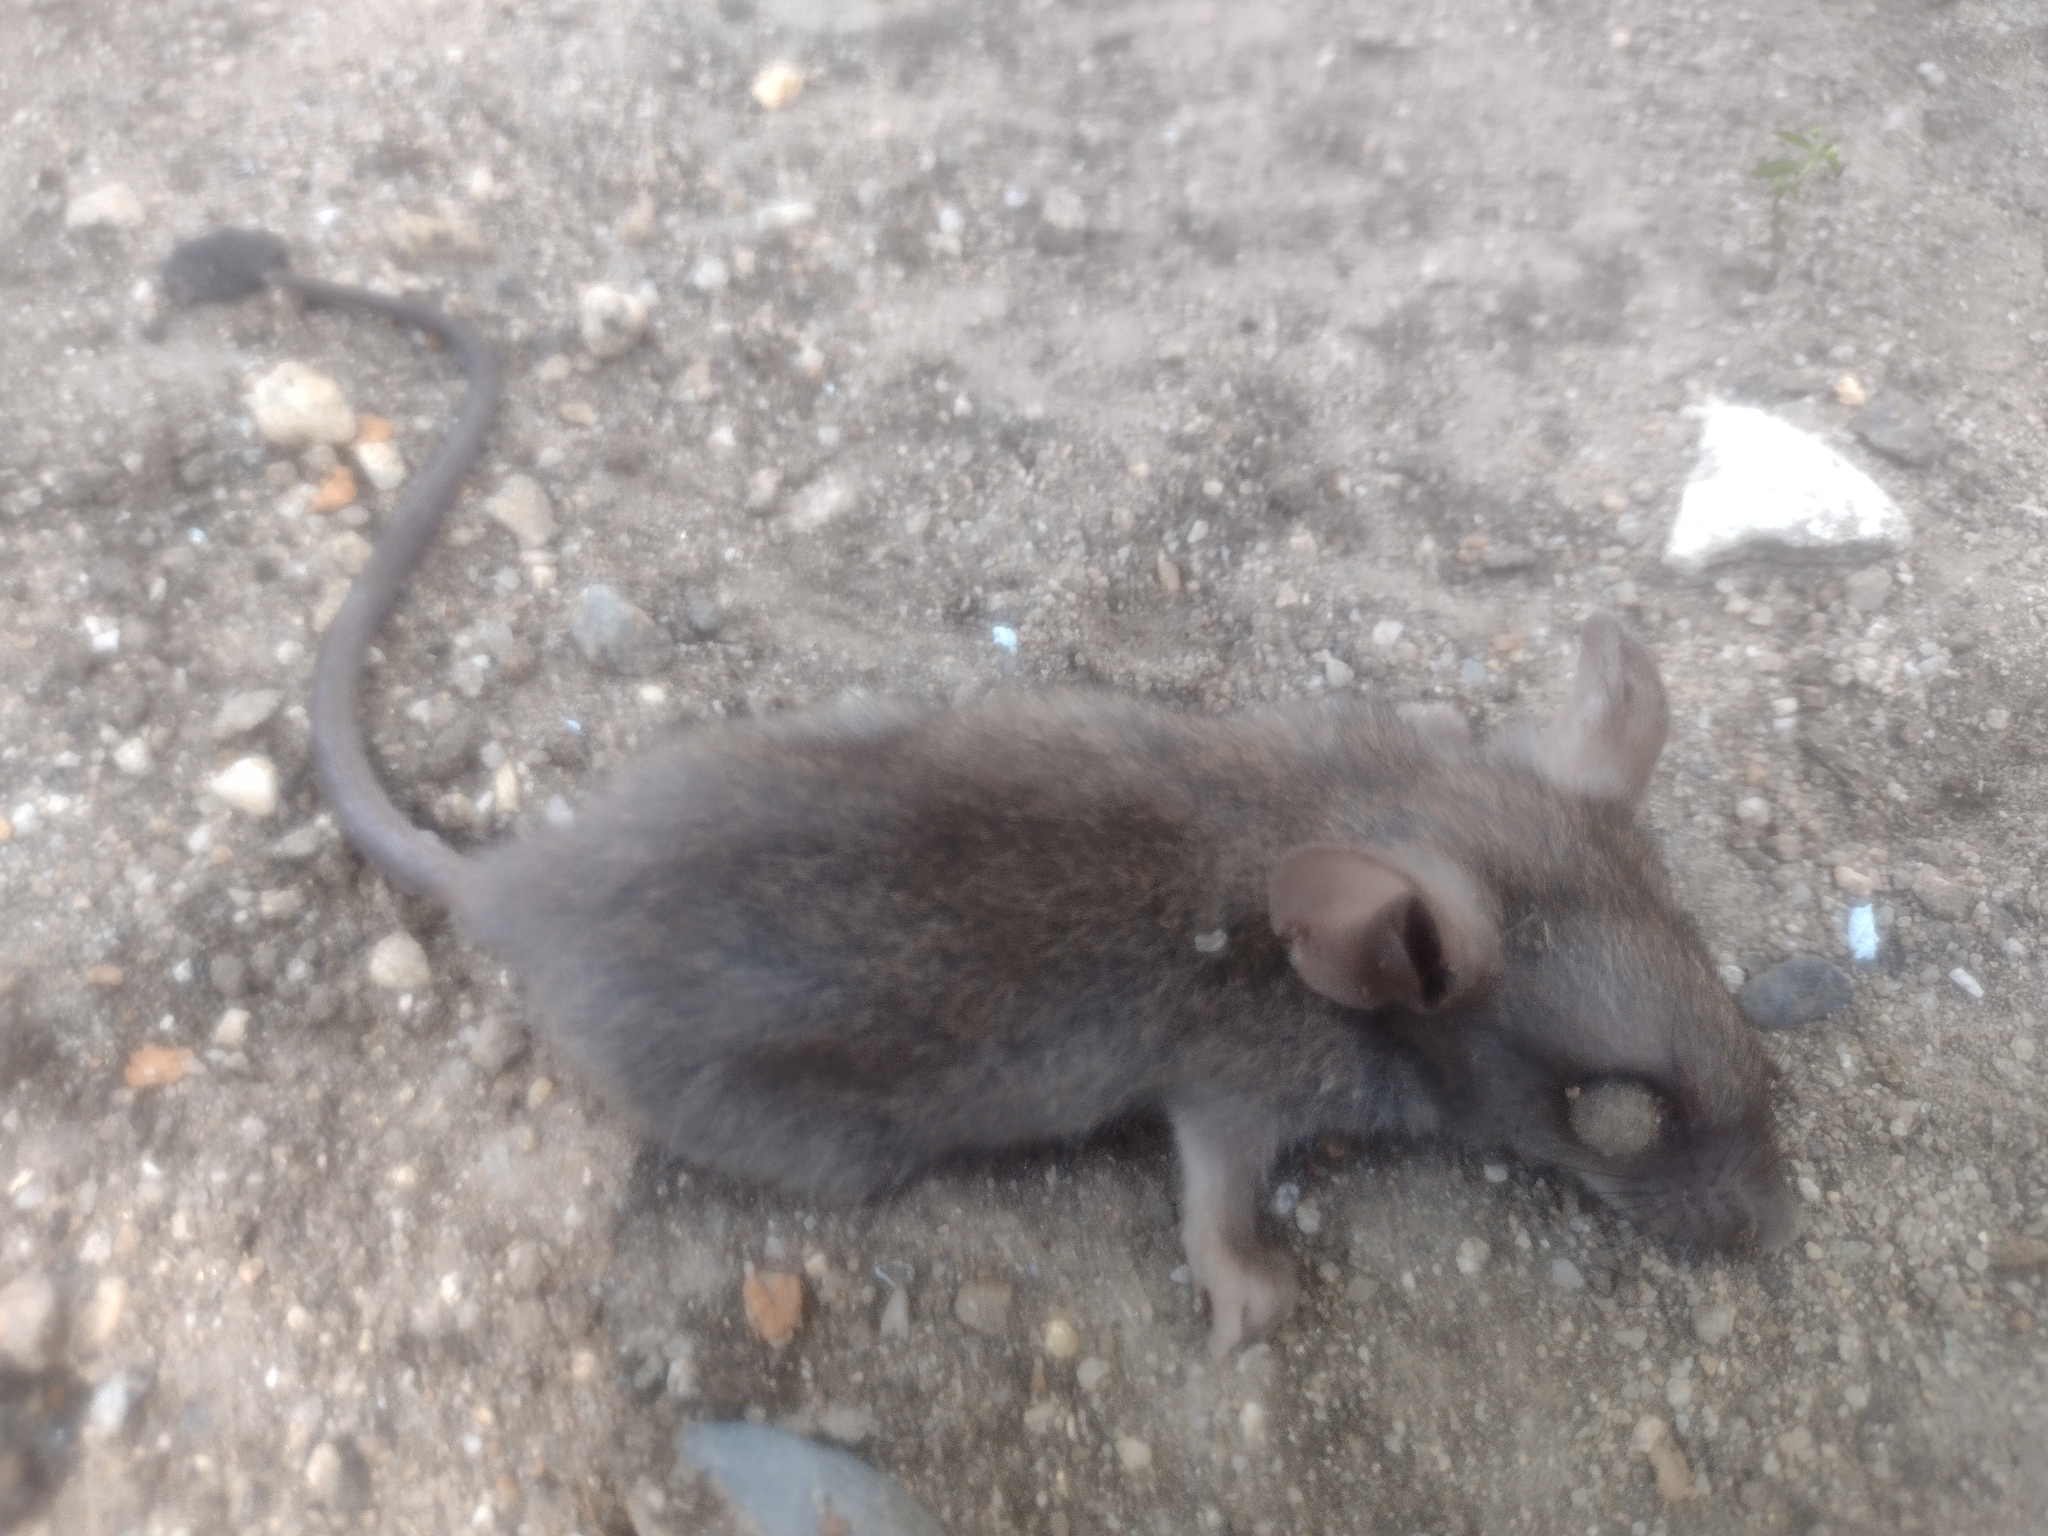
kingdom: Animalia
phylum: Chordata
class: Mammalia
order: Rodentia
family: Muridae
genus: Mus
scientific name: Mus musculus
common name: House mouse
